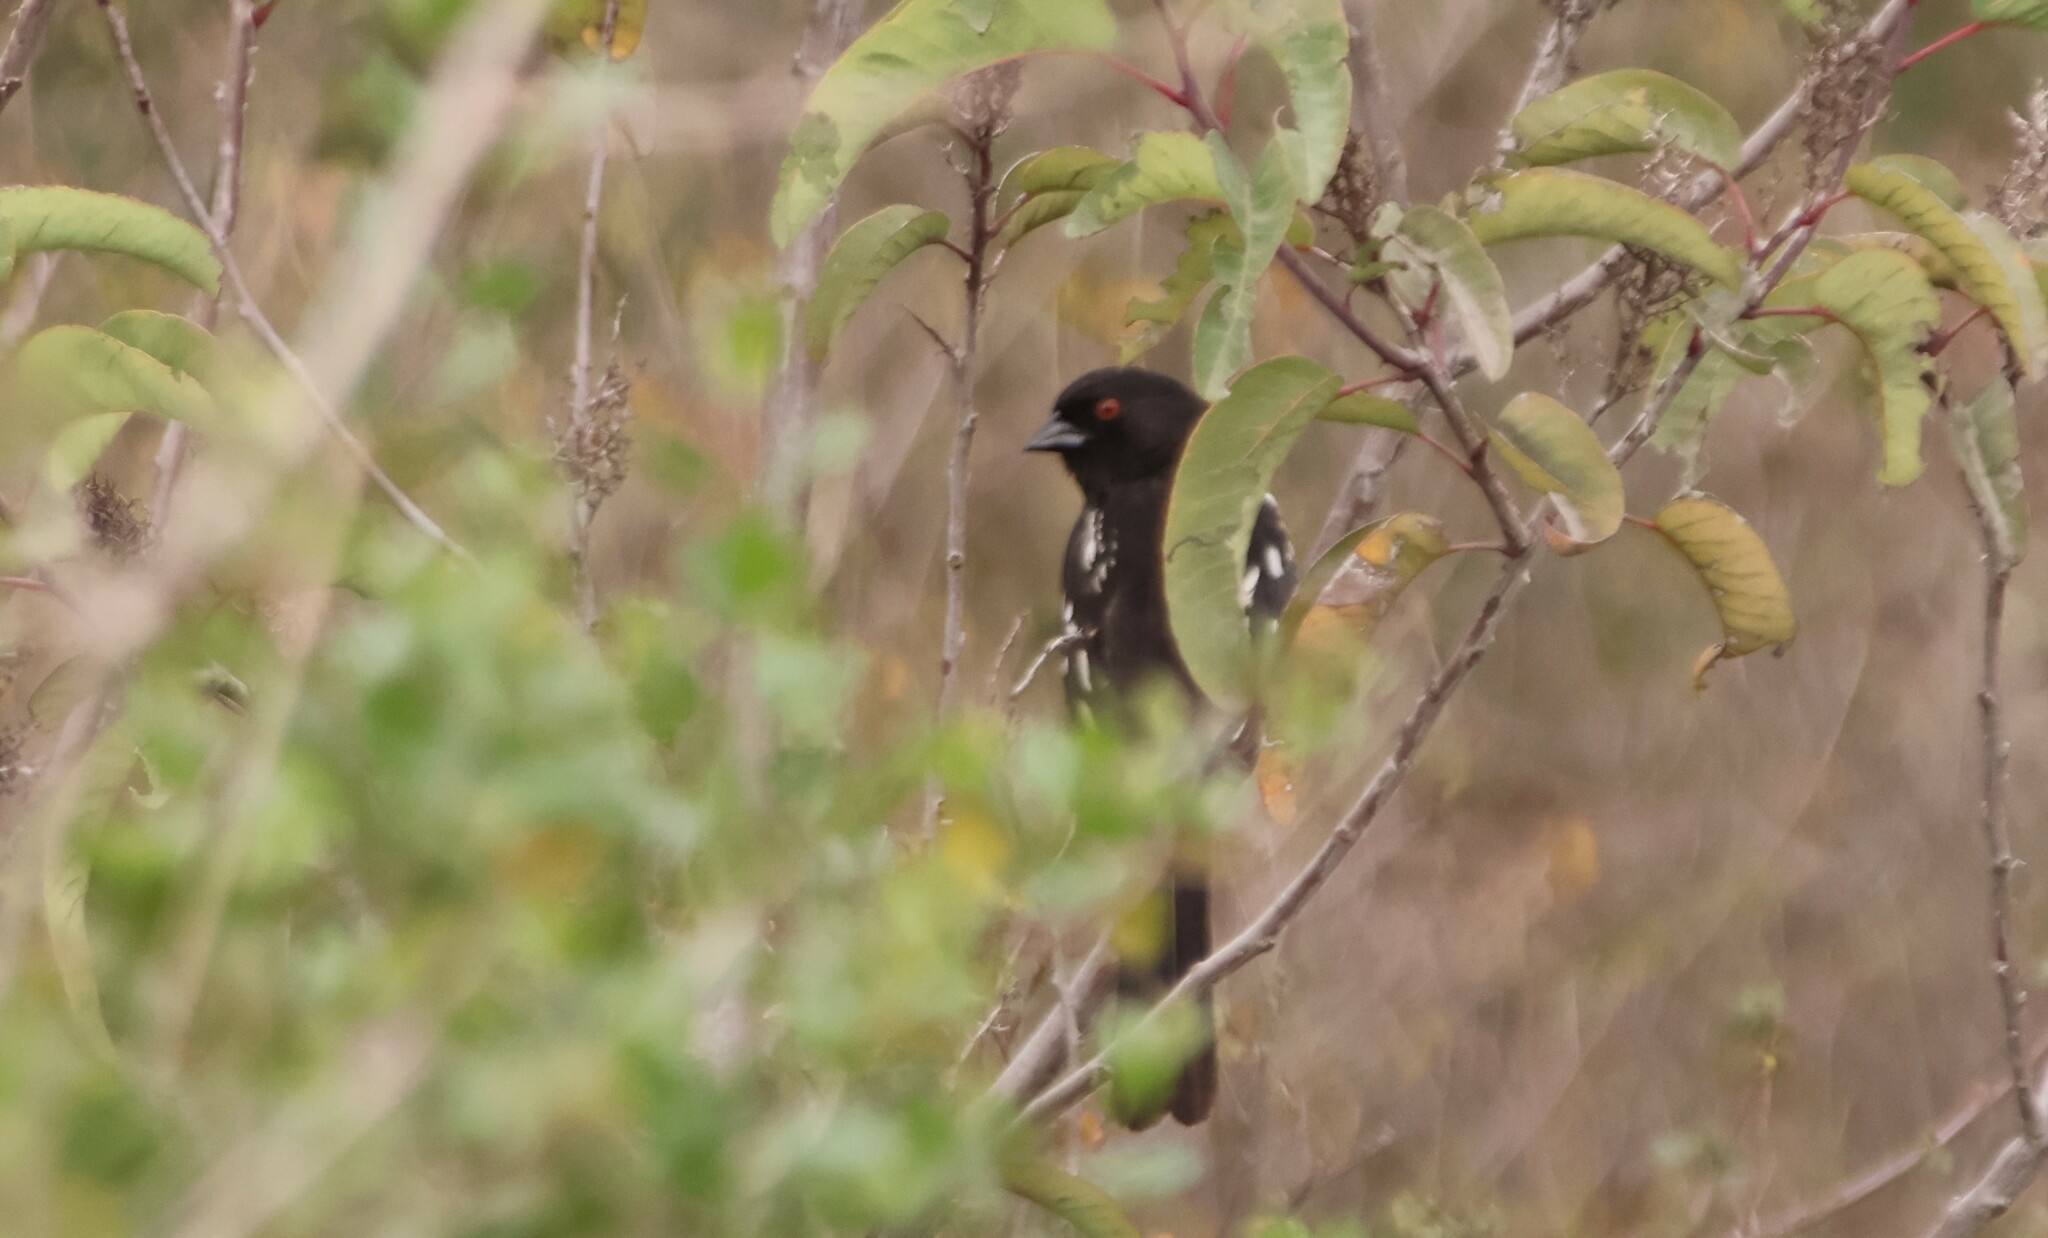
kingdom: Animalia
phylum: Chordata
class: Aves
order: Passeriformes
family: Passerellidae
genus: Pipilo
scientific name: Pipilo maculatus
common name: Spotted towhee
